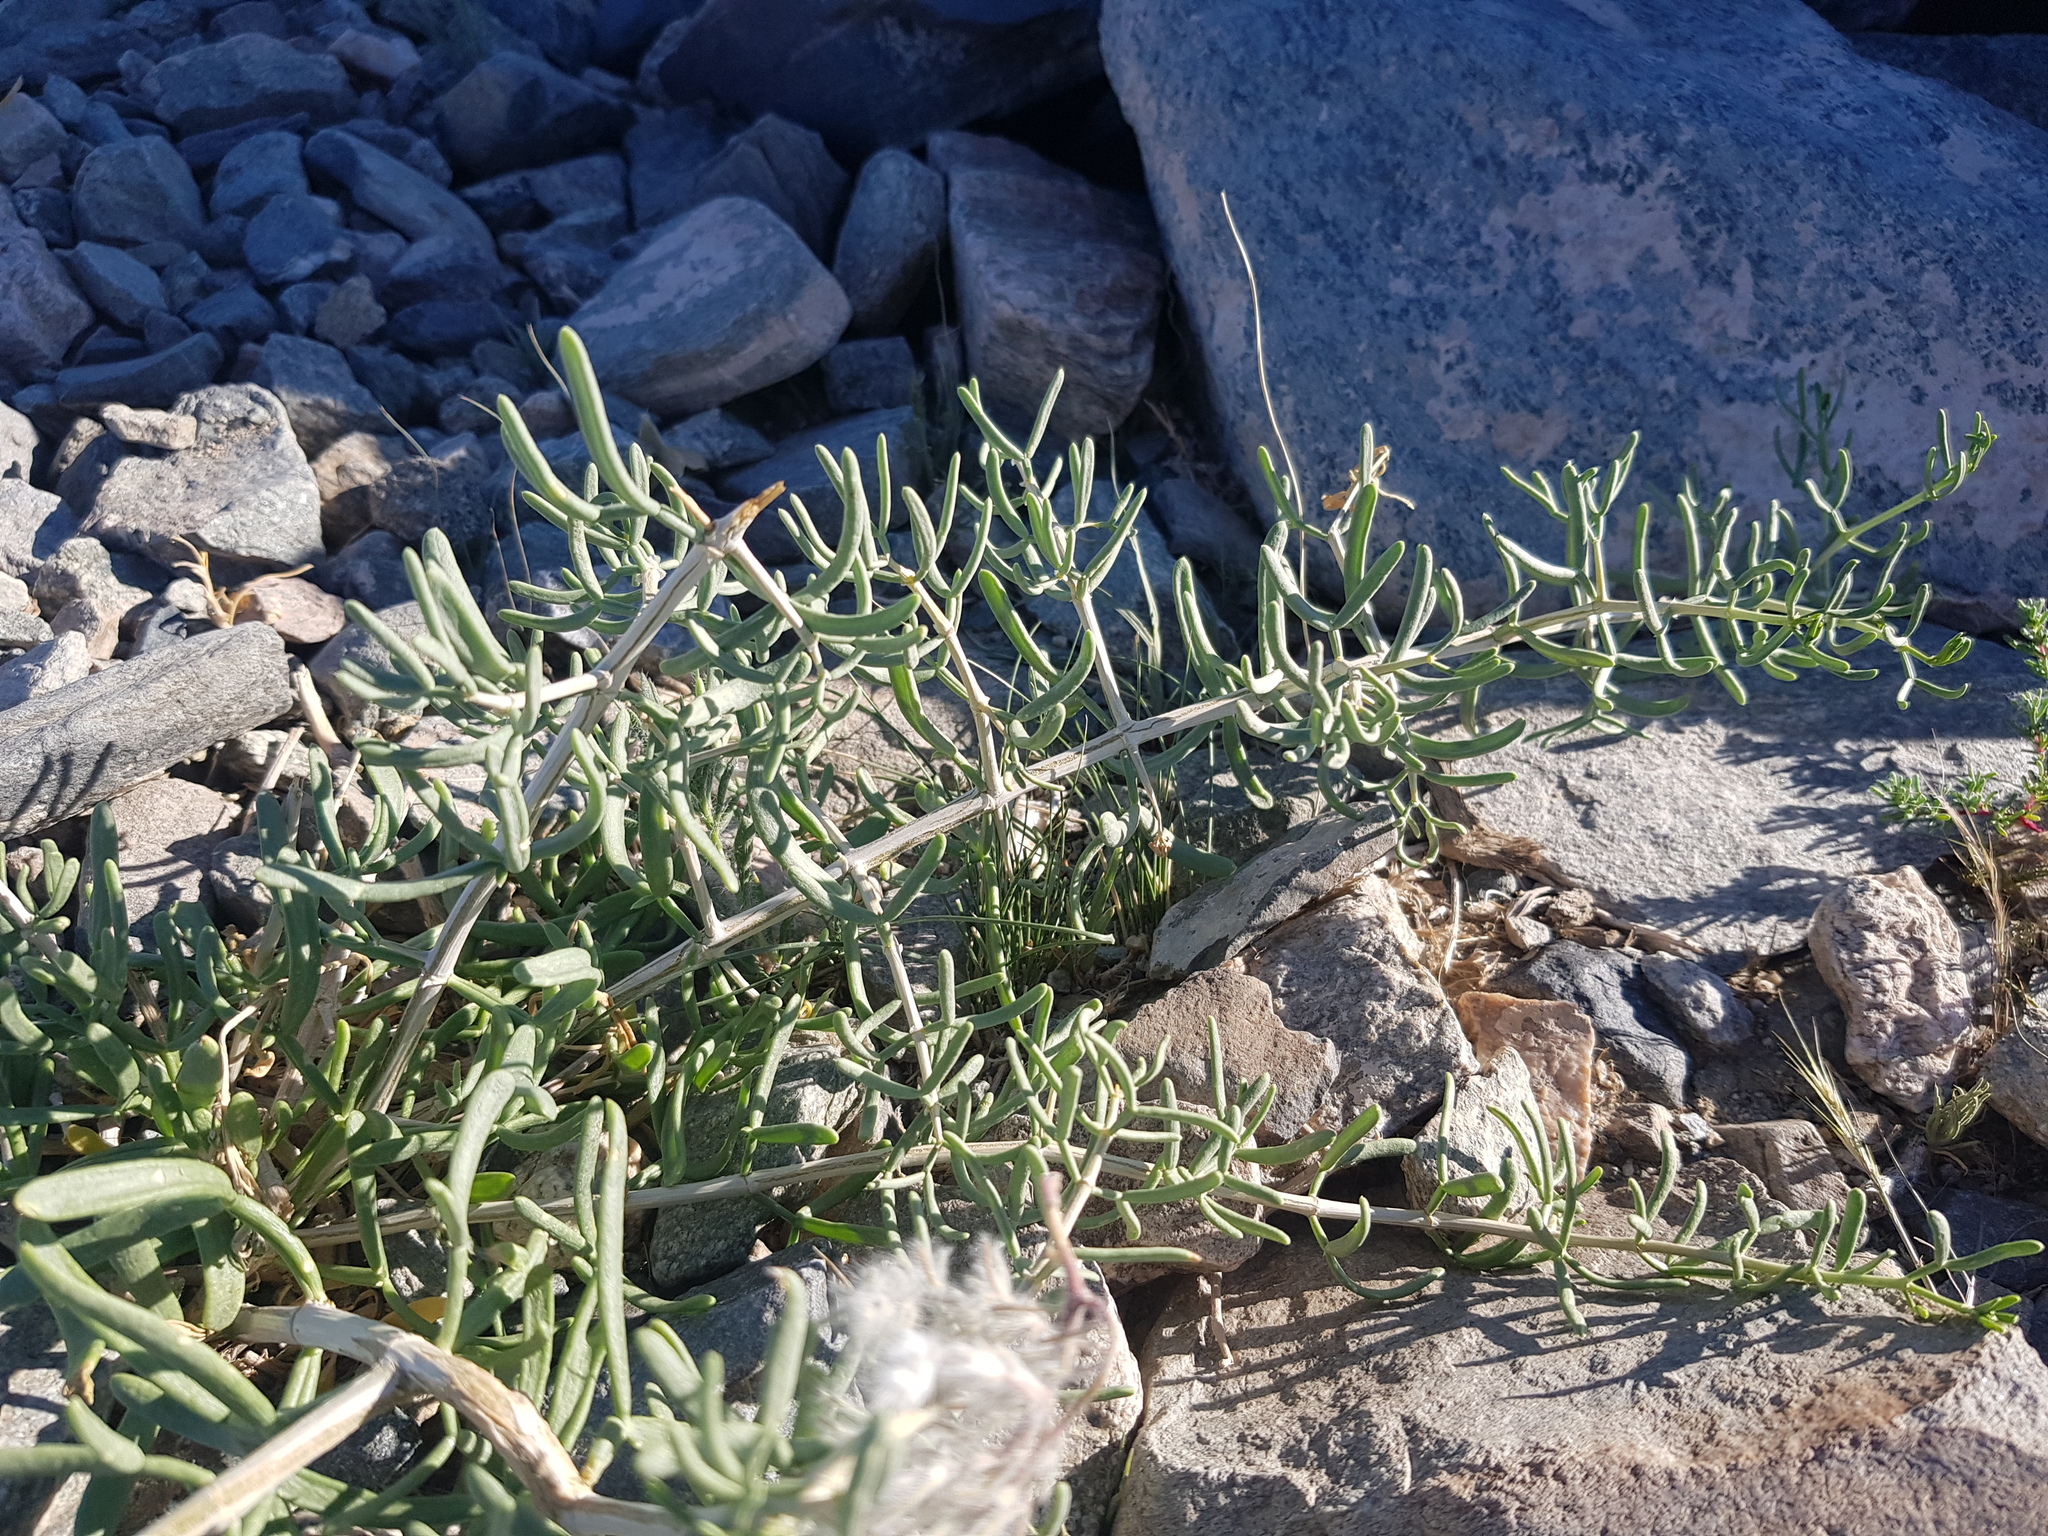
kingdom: Plantae
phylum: Tracheophyta
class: Magnoliopsida
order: Zygophyllales
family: Zygophyllaceae
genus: Zygophyllum
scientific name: Zygophyllum xanthoxylum
